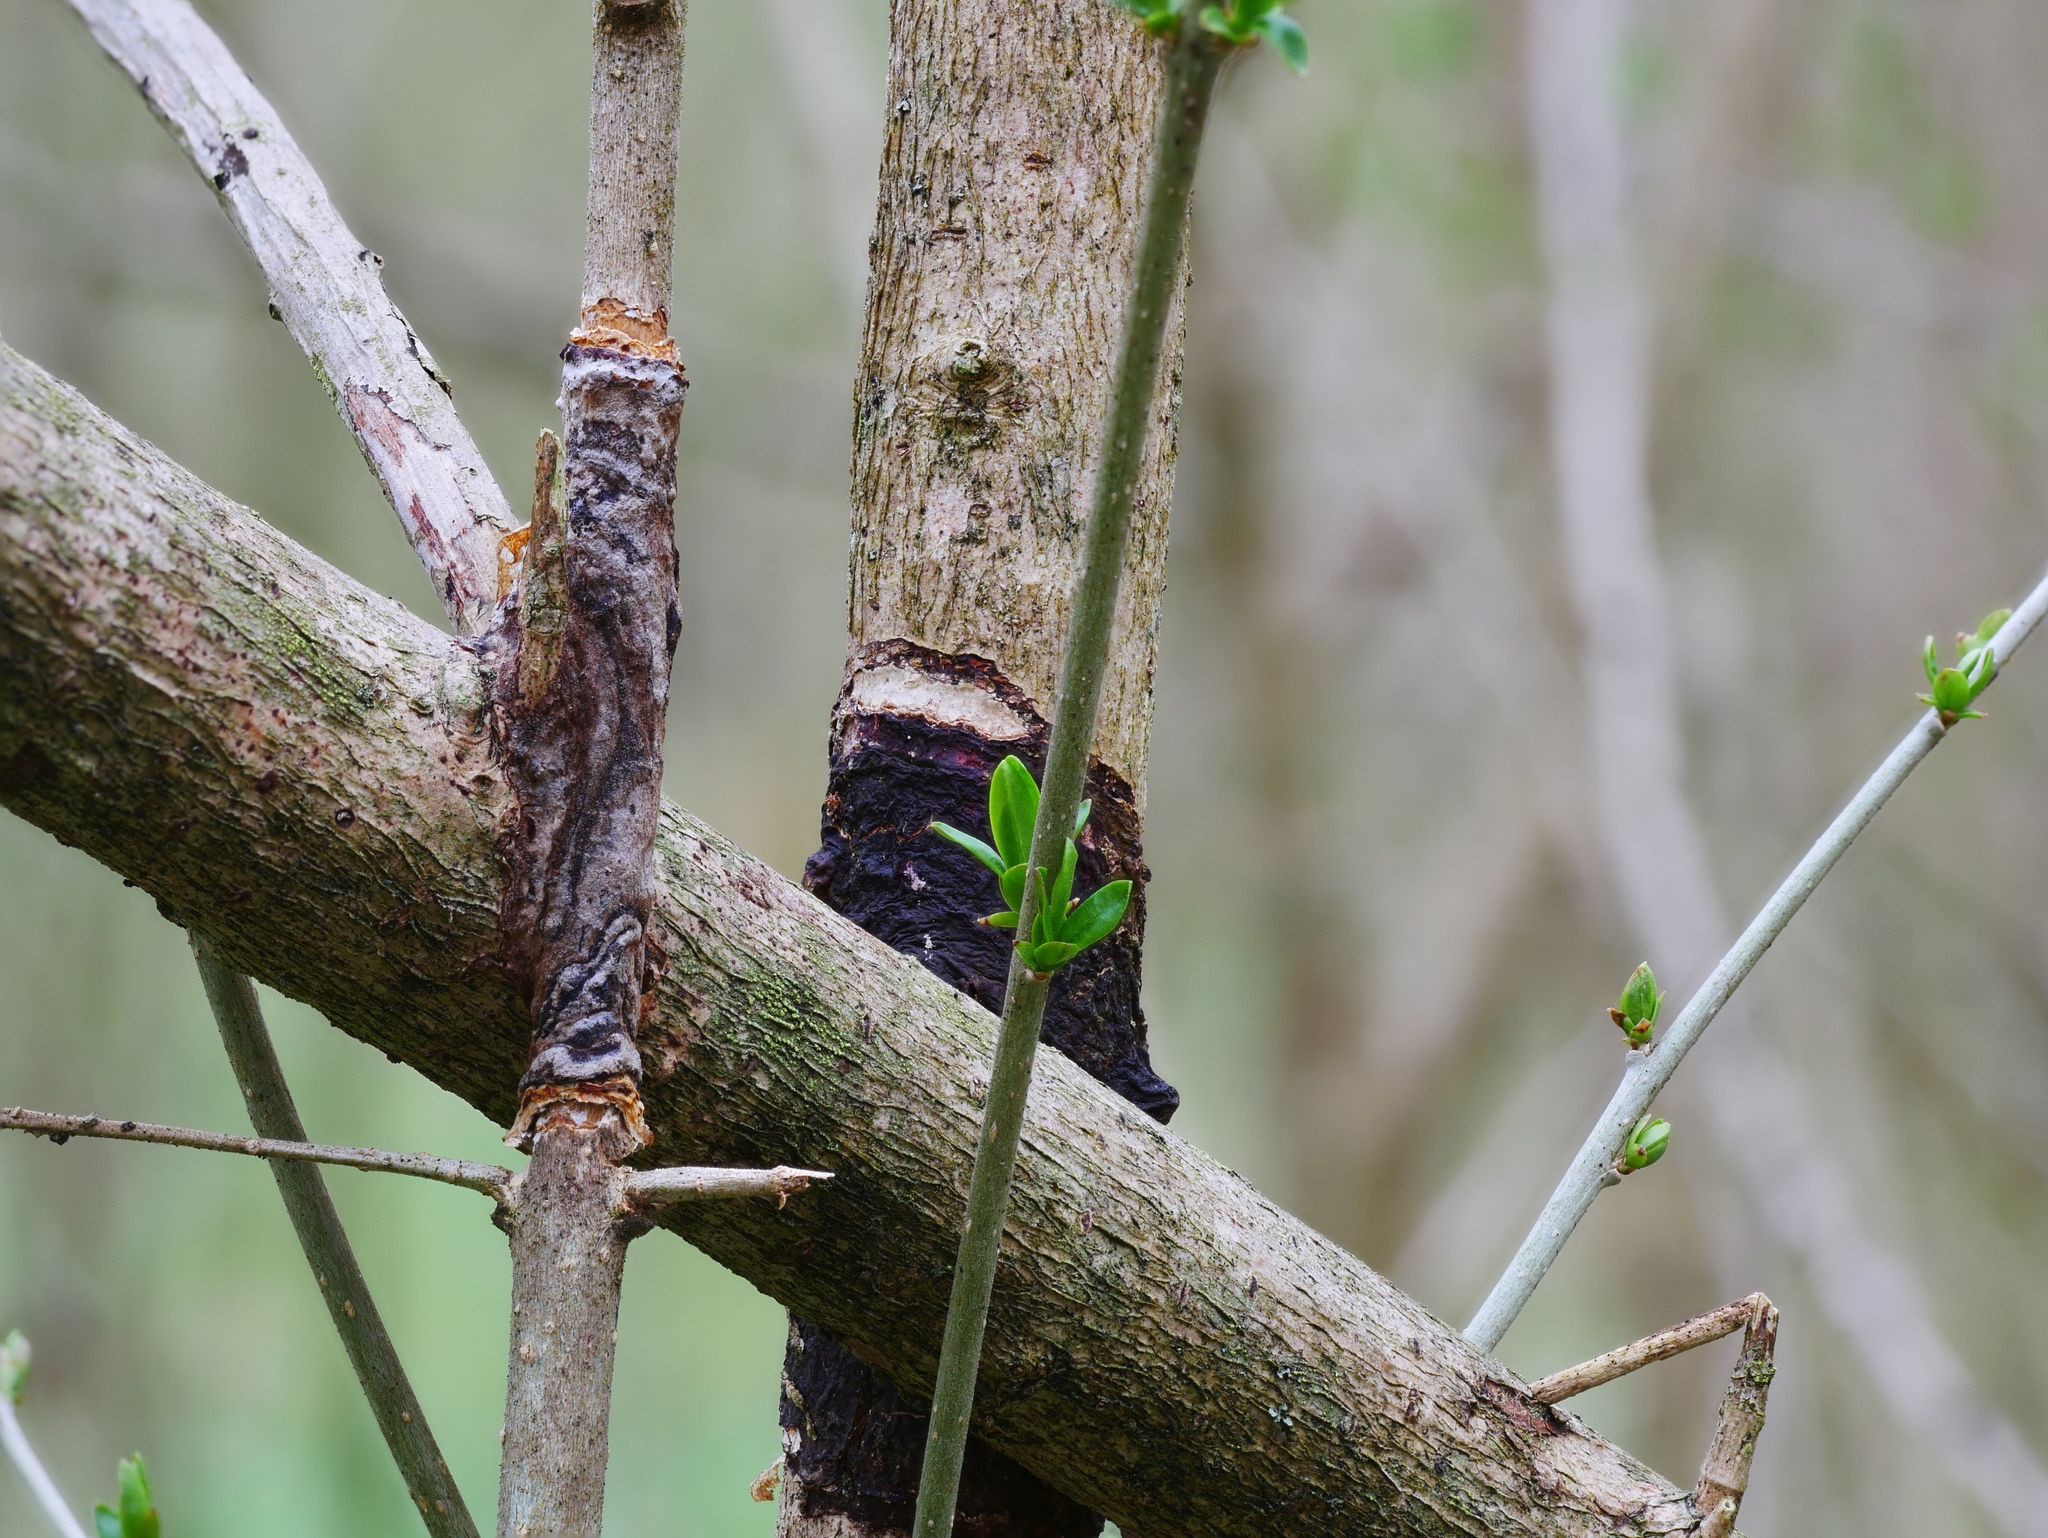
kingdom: Fungi
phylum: Basidiomycota
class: Agaricomycetes
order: Hymenochaetales
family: Hymenochaetaceae
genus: Hydnoporia
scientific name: Hydnoporia diffissa
